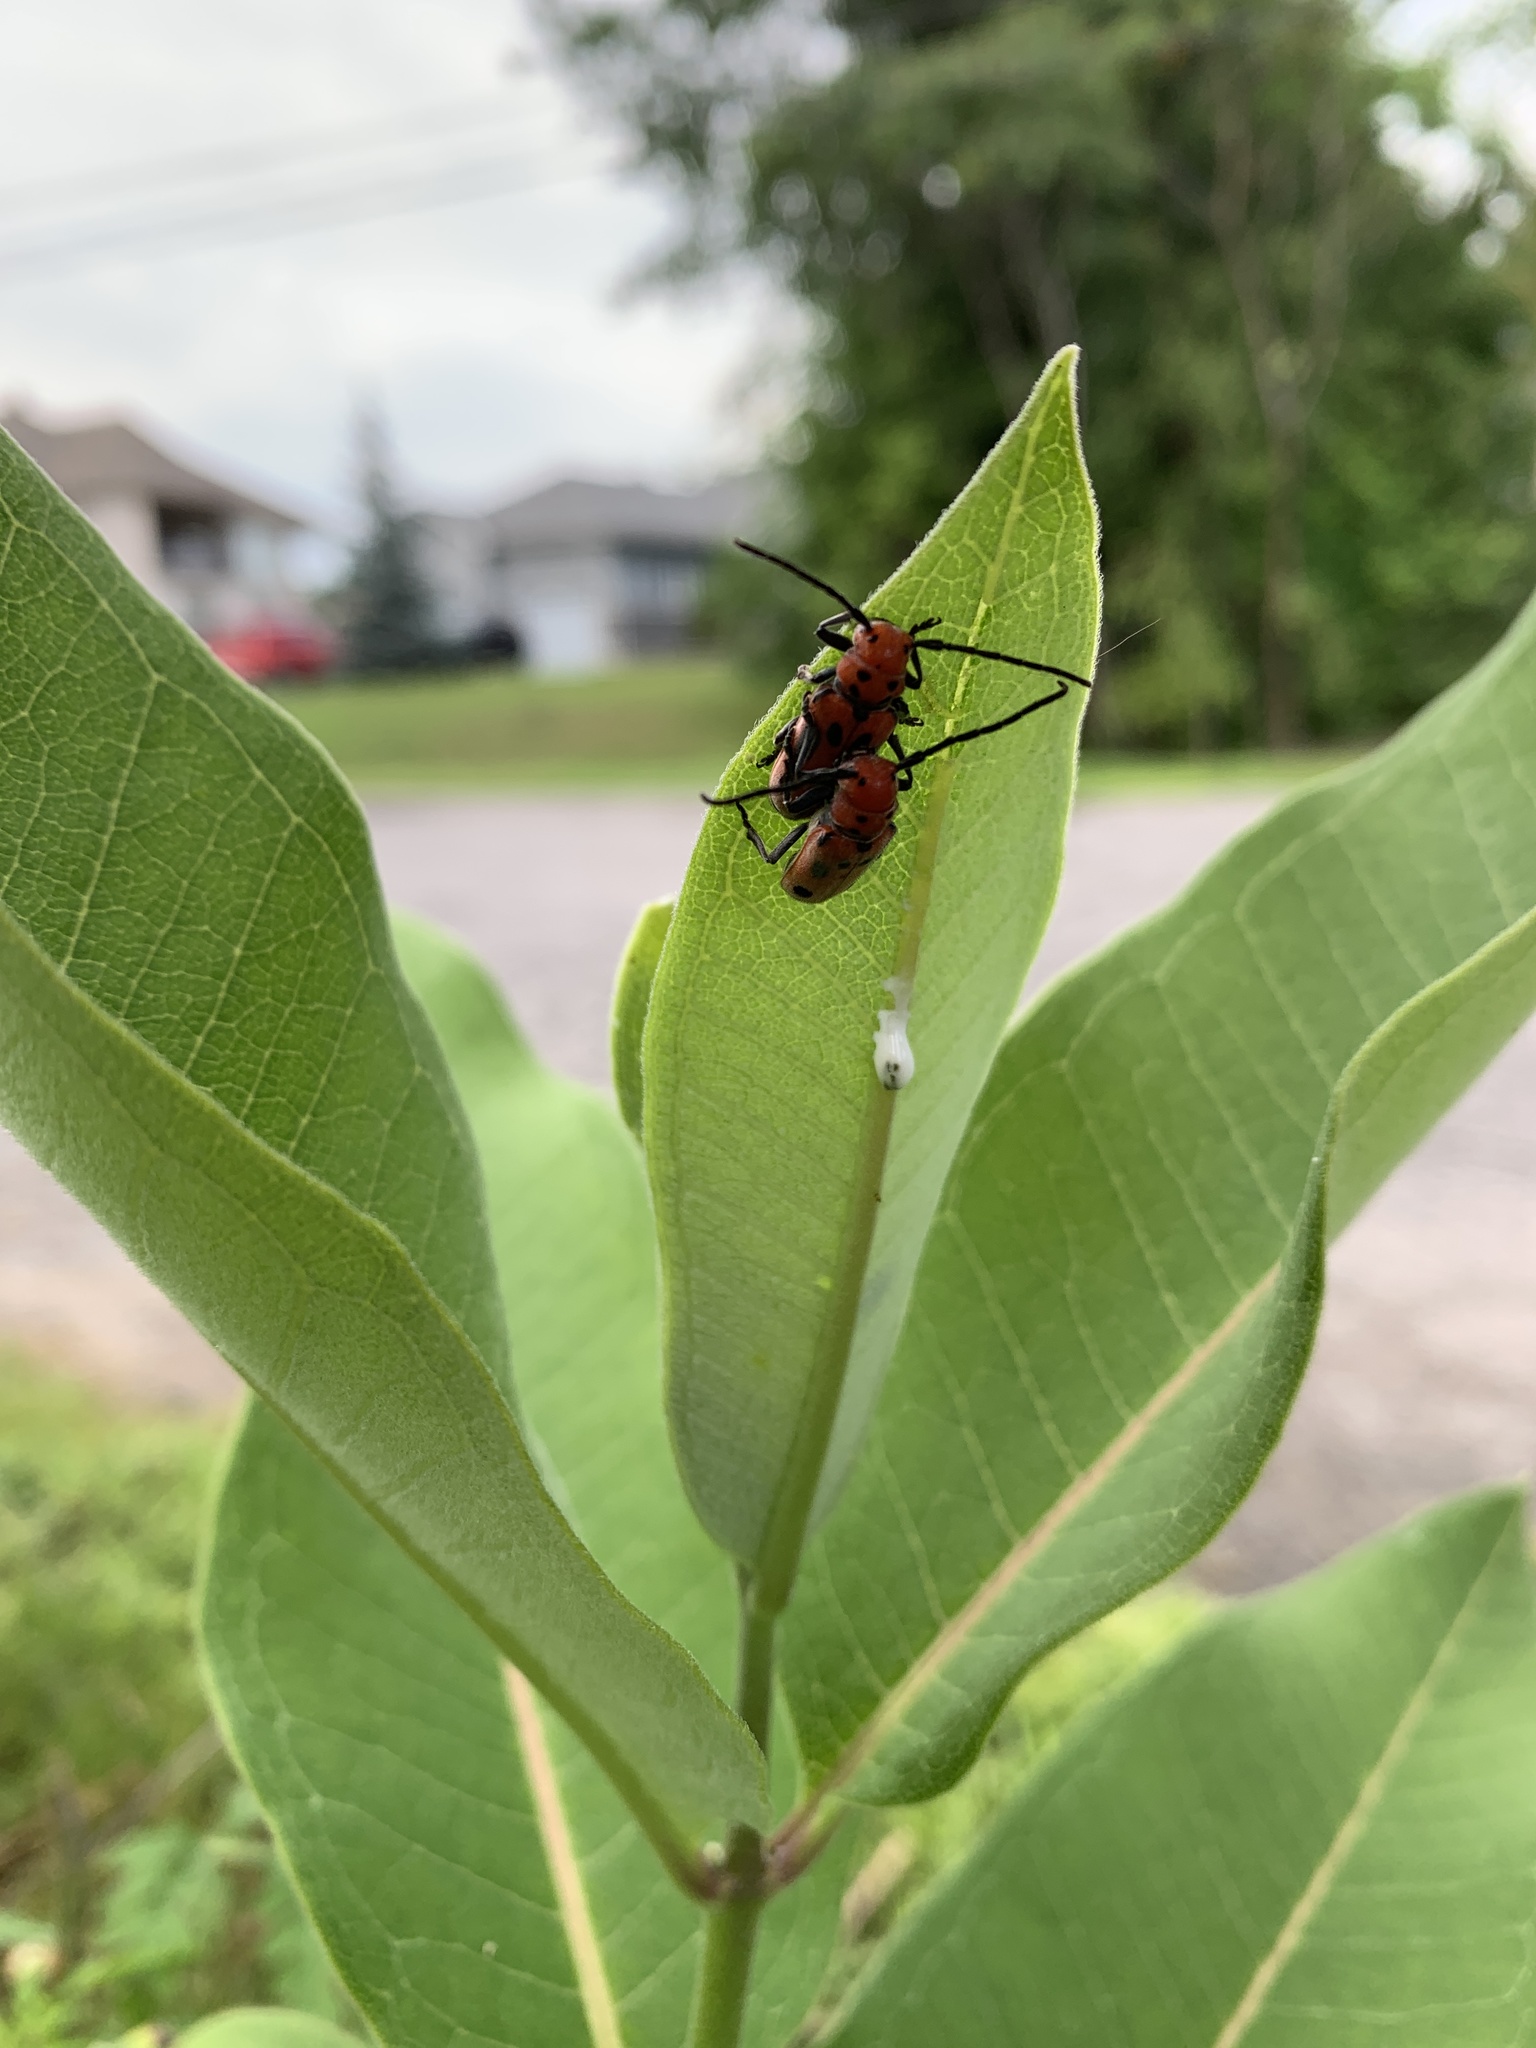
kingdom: Animalia
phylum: Arthropoda
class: Insecta
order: Coleoptera
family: Cerambycidae
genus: Tetraopes
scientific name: Tetraopes tetrophthalmus
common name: Red milkweed beetle
